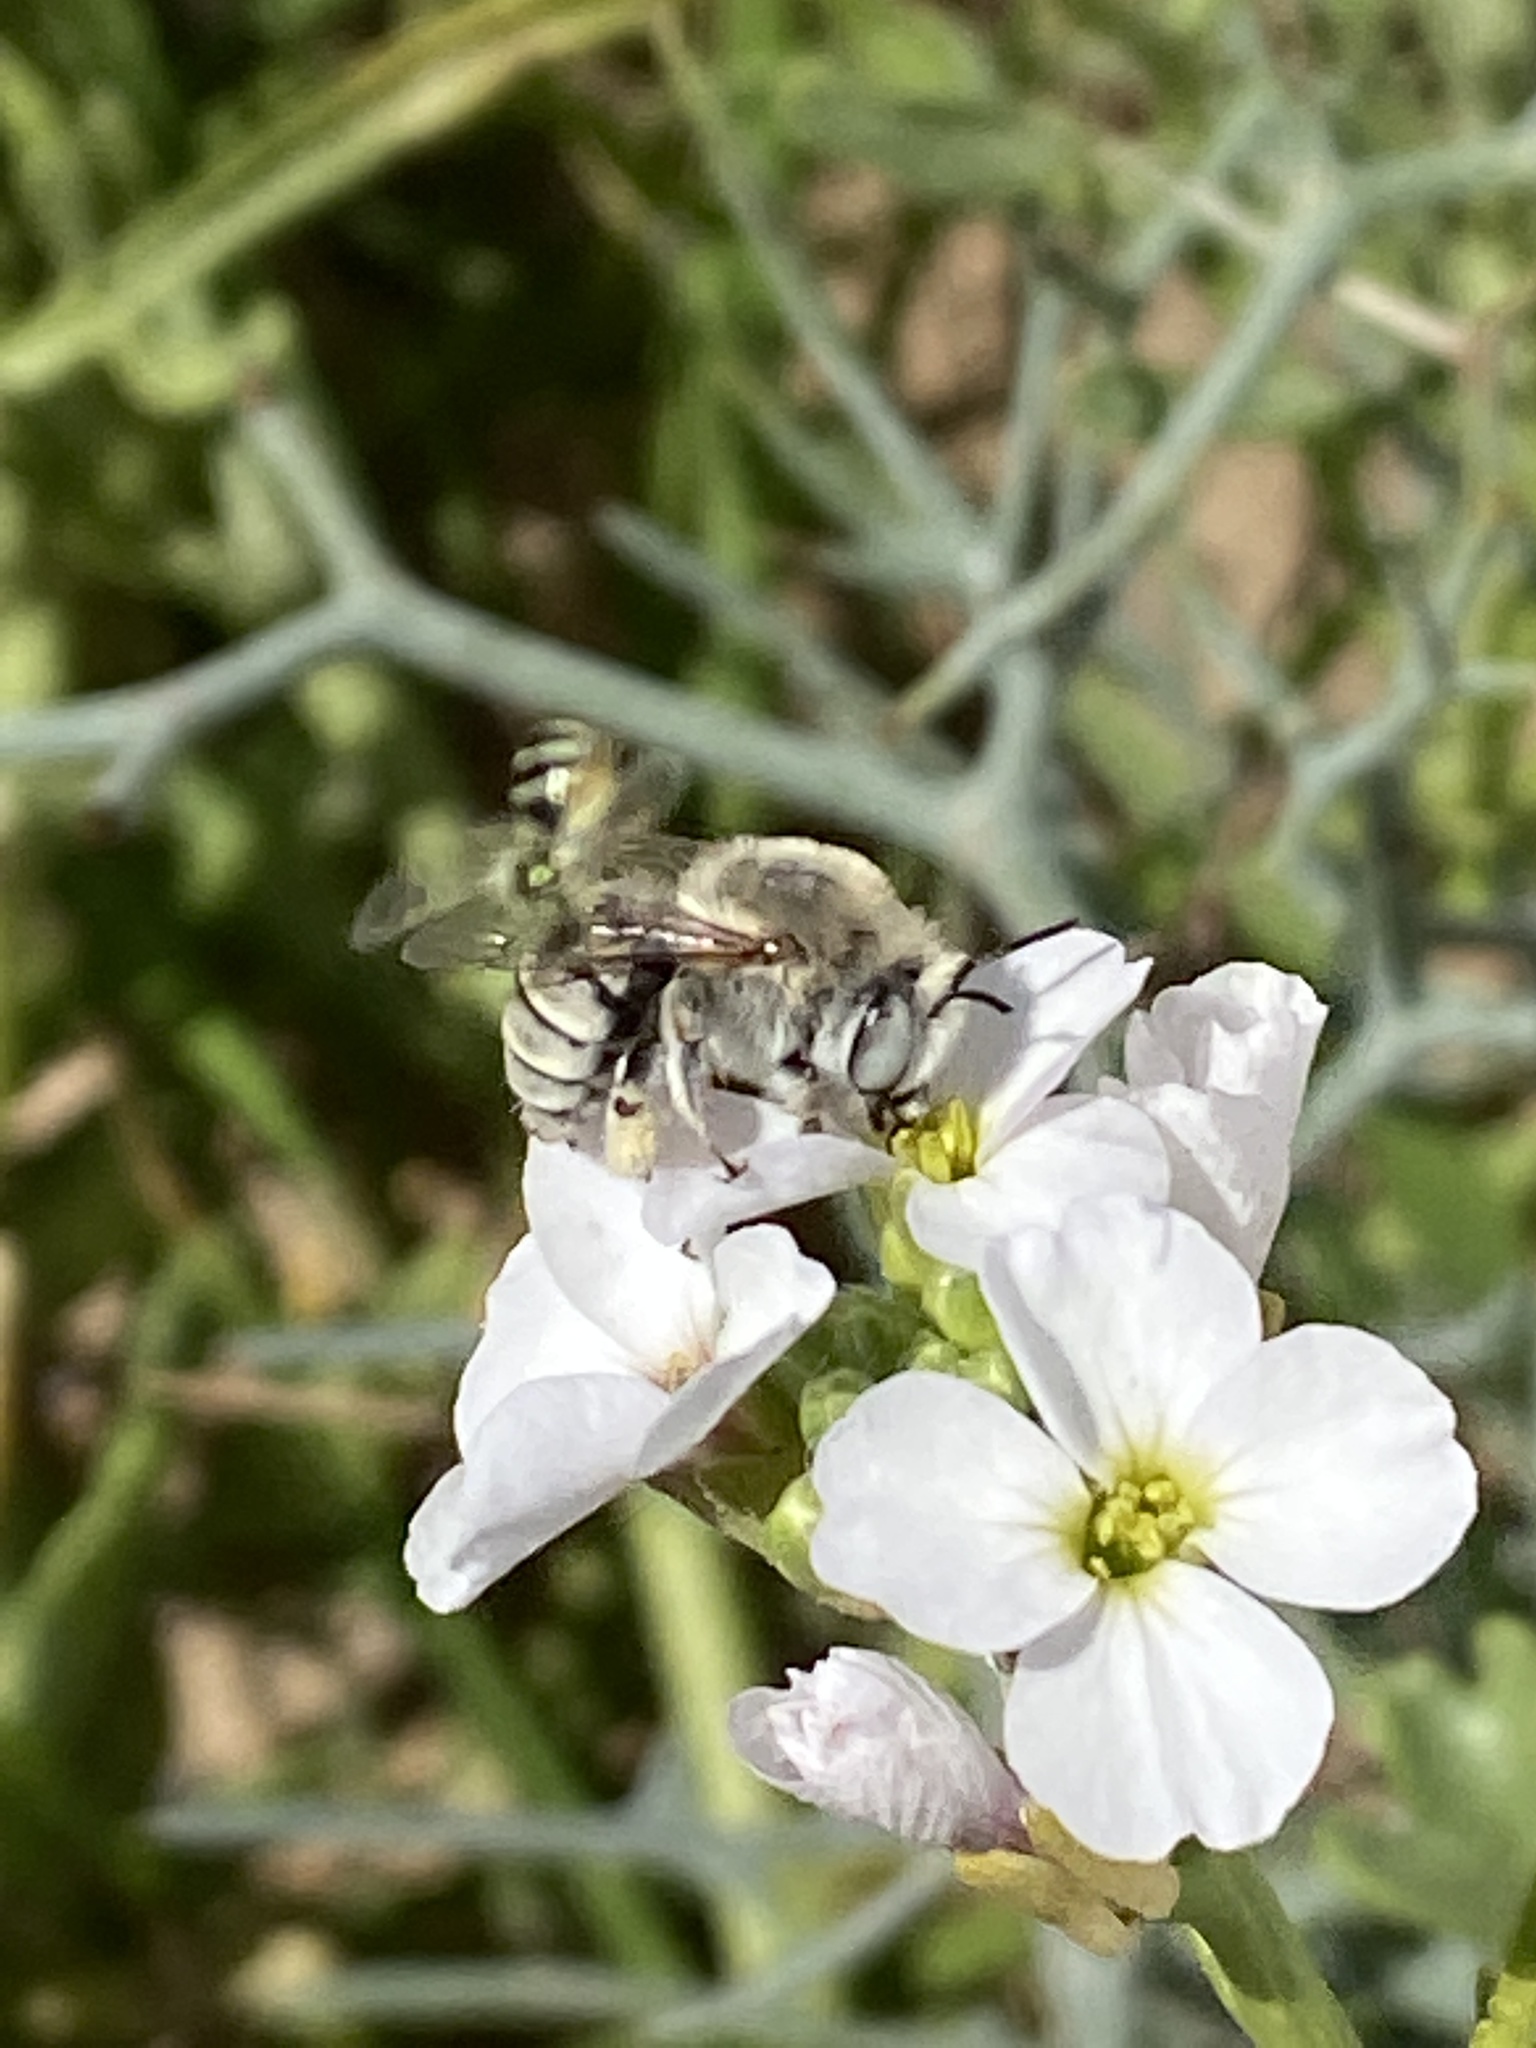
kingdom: Animalia
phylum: Arthropoda
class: Insecta
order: Hymenoptera
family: Apidae
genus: Anthophora
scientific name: Anthophora pulverosa
